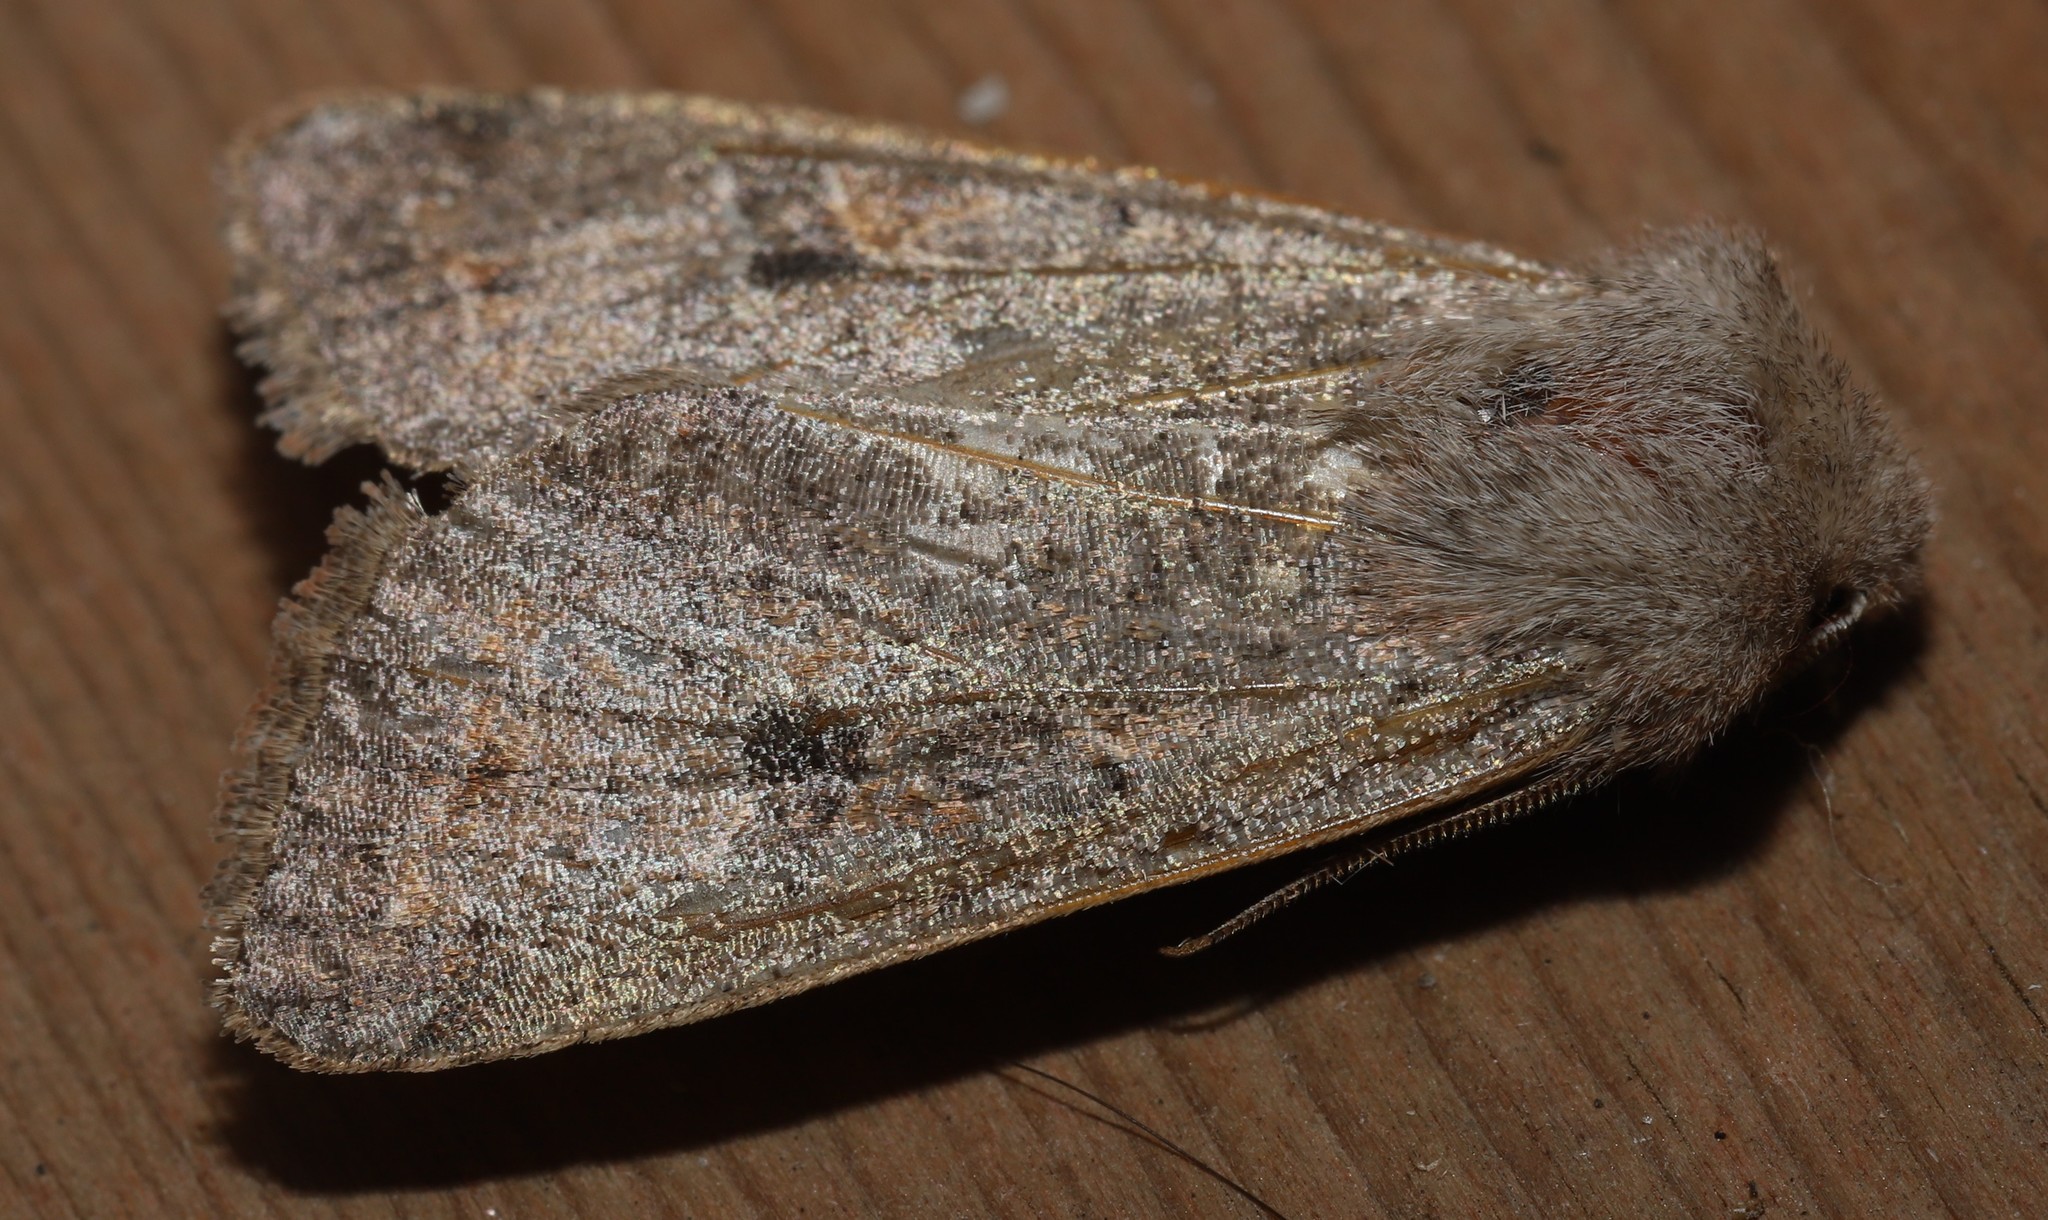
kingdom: Animalia
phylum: Arthropoda
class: Insecta
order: Lepidoptera
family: Noctuidae
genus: Orthosia
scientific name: Orthosia hibisci
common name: Green fruitworm
